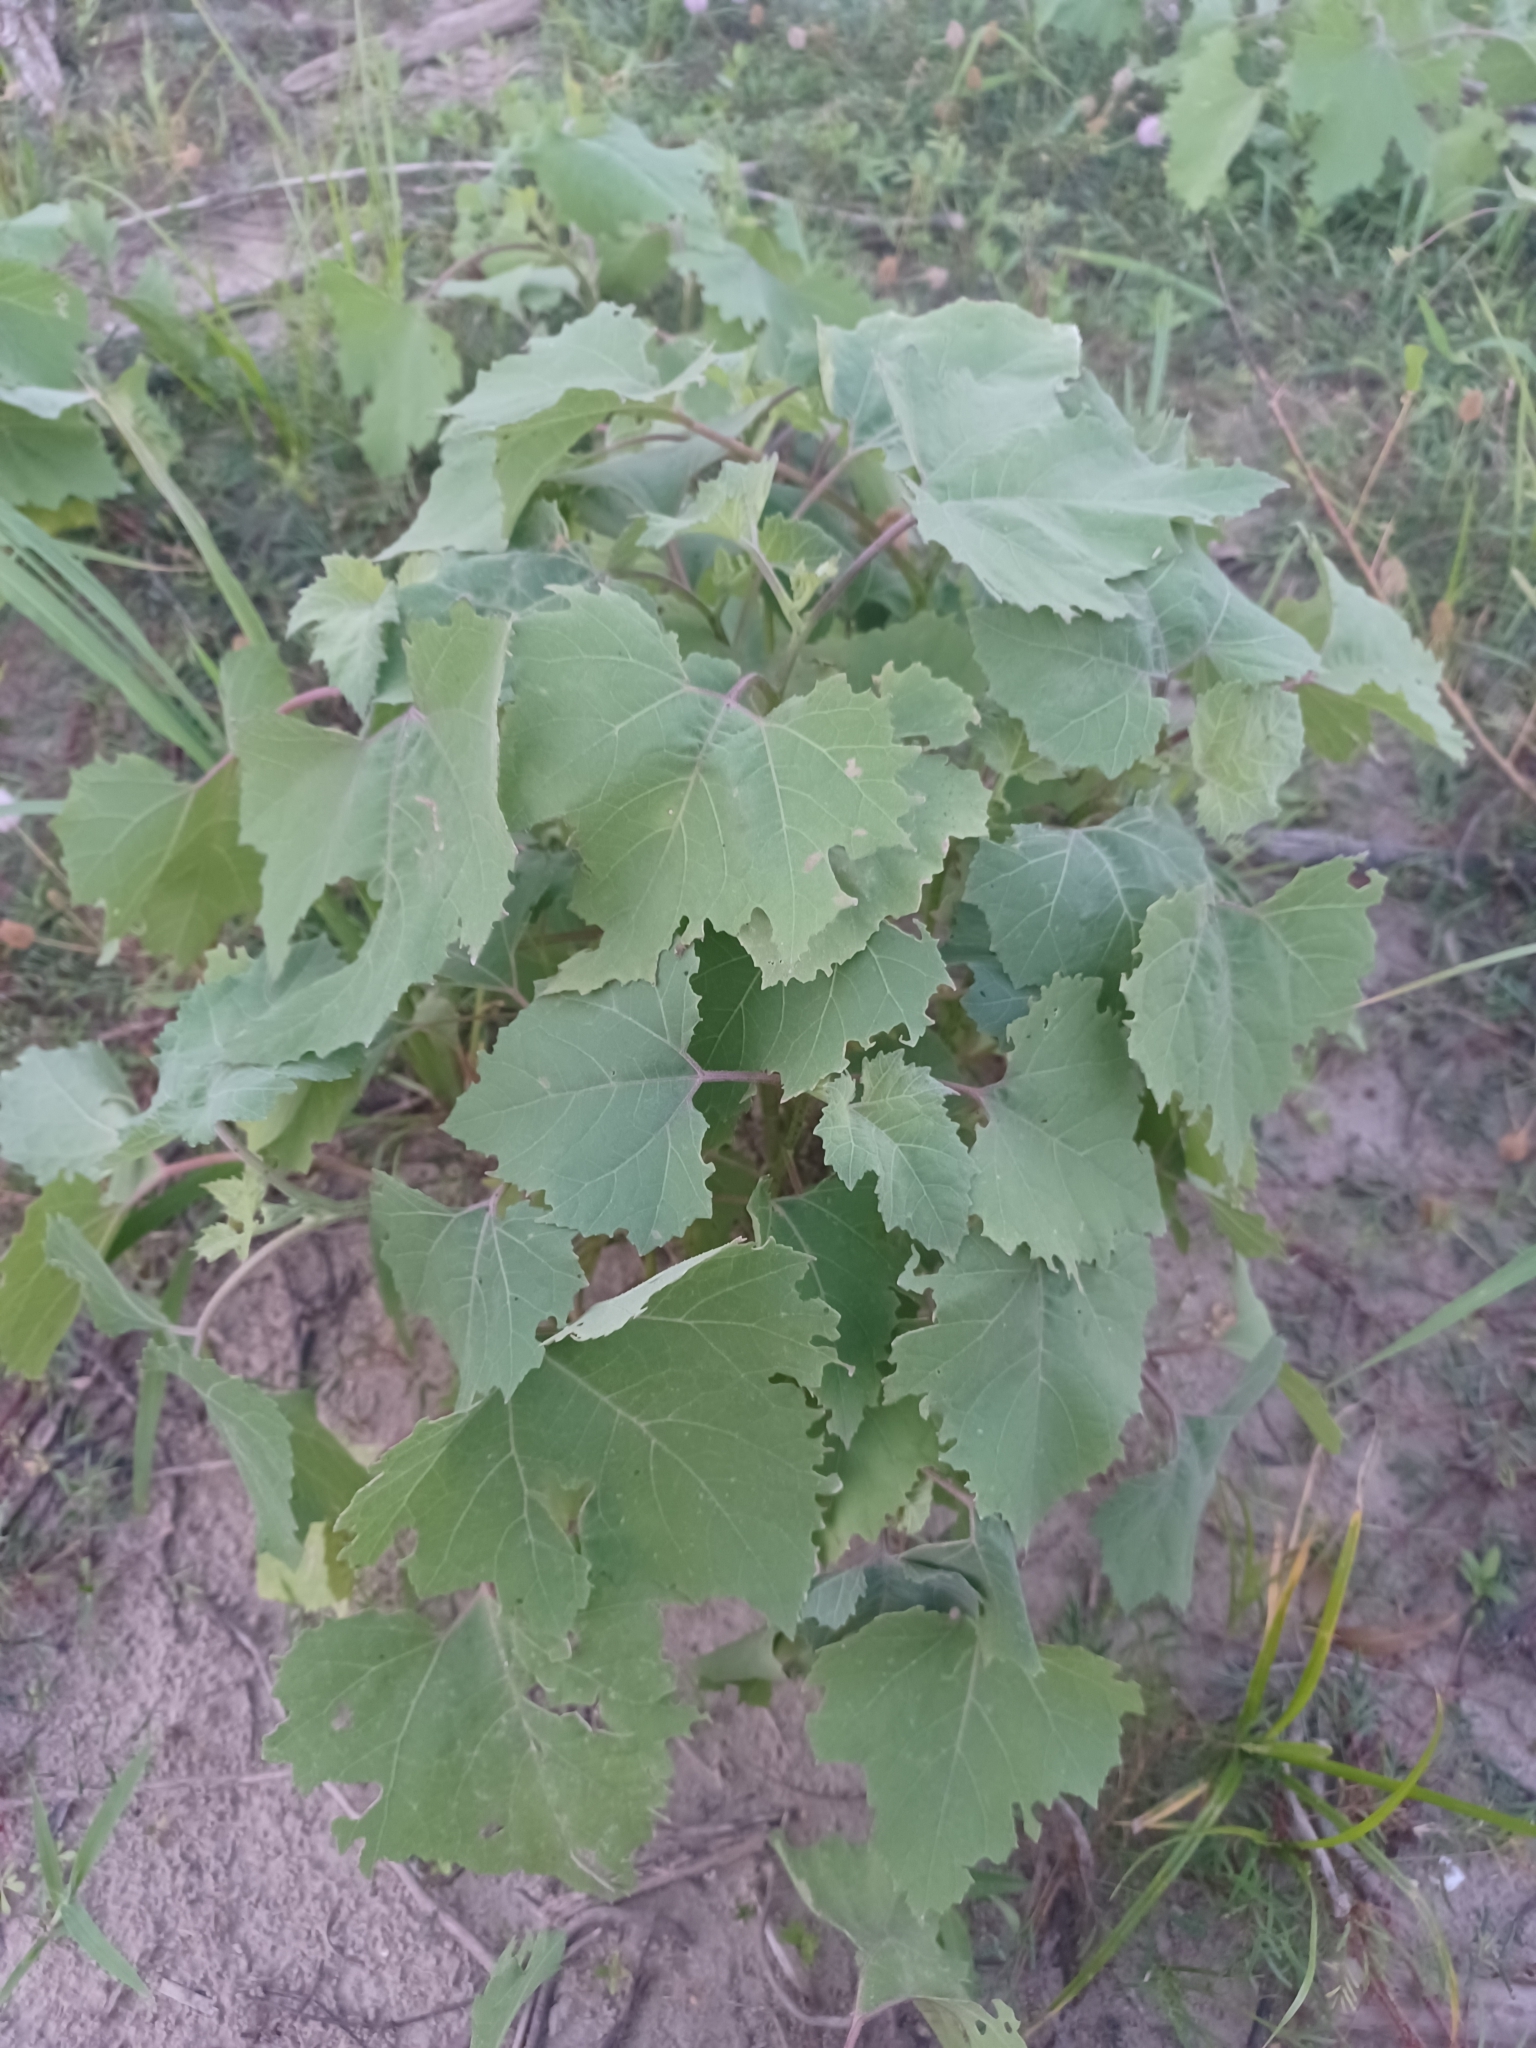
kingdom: Plantae
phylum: Tracheophyta
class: Magnoliopsida
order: Asterales
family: Asteraceae
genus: Xanthium
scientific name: Xanthium strumarium
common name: Rough cocklebur
